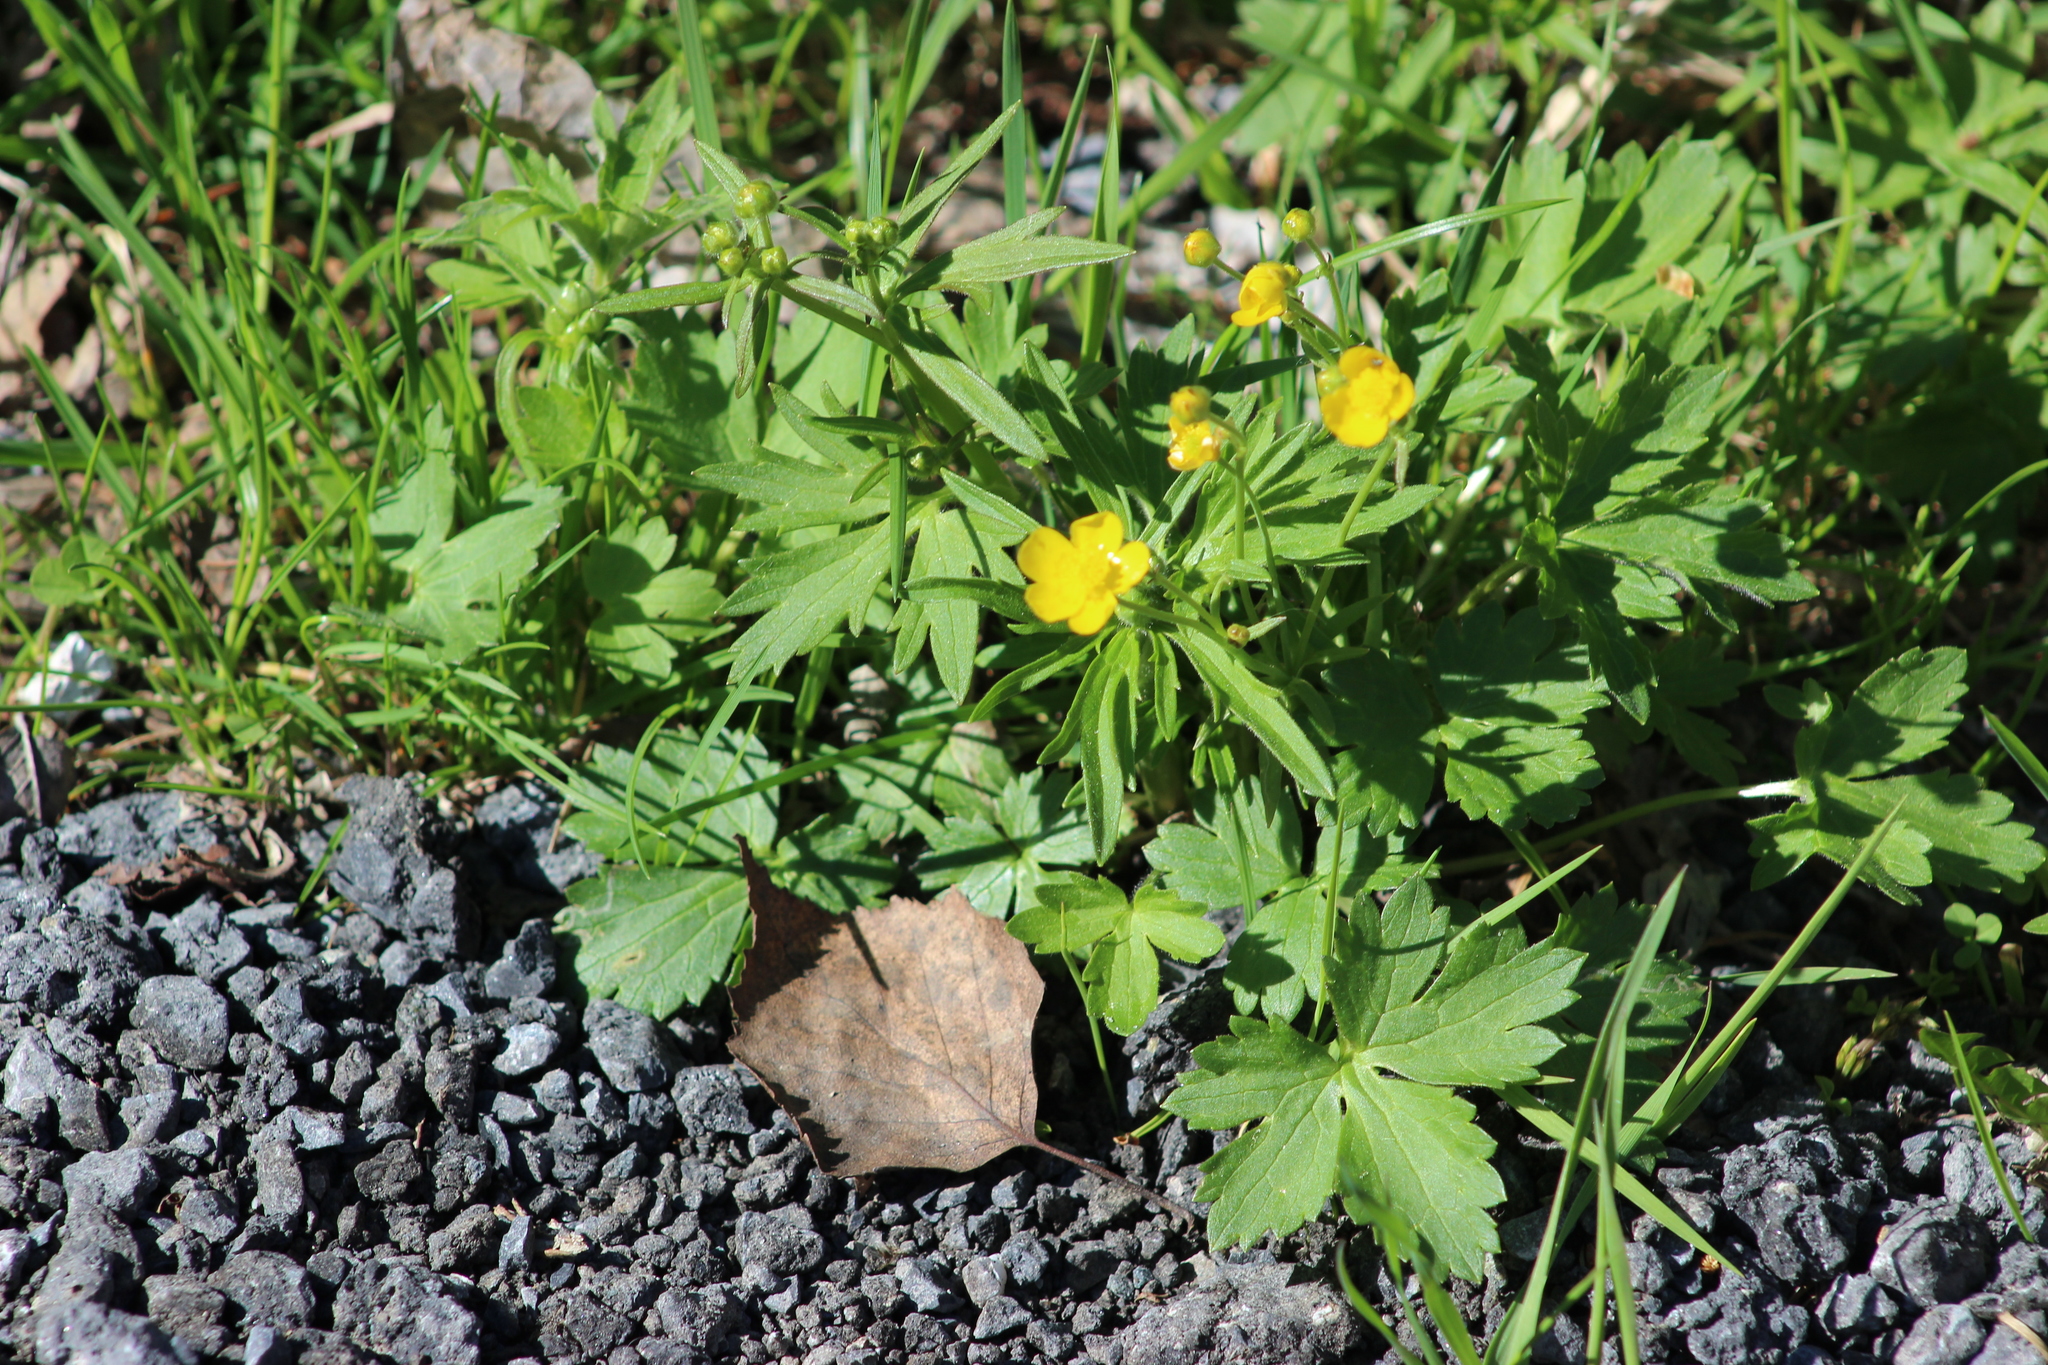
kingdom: Plantae
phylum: Tracheophyta
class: Magnoliopsida
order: Ranunculales
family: Ranunculaceae
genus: Ranunculus
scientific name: Ranunculus propinquus
